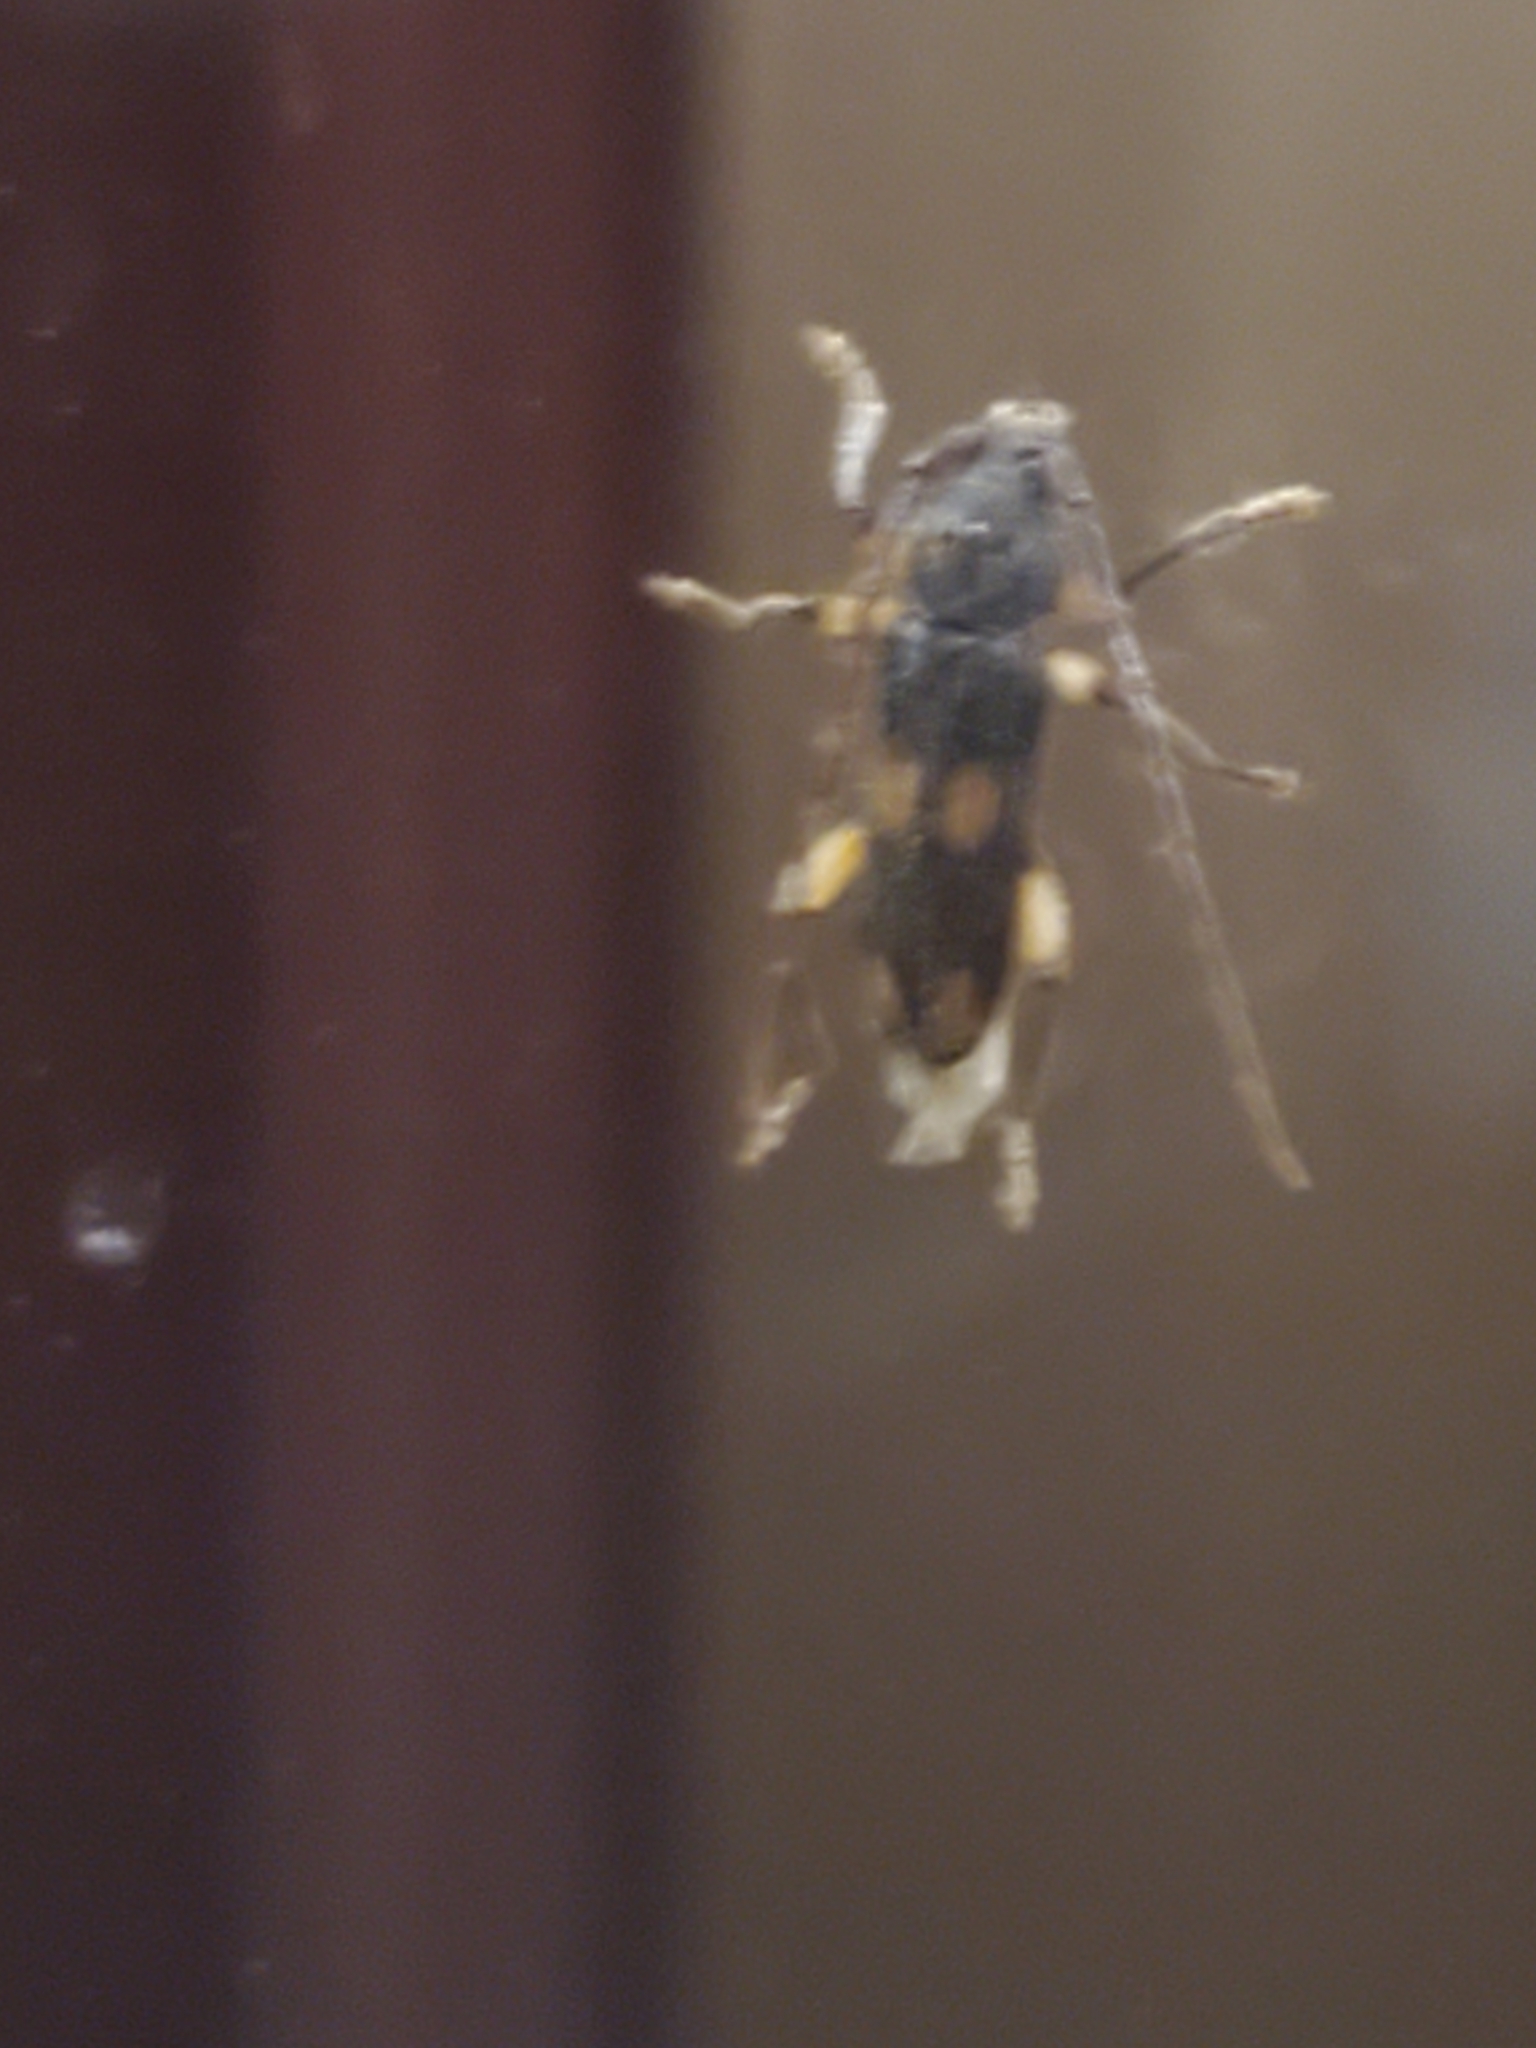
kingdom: Animalia
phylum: Arthropoda
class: Insecta
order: Coleoptera
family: Cerambycidae
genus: Tylonotus
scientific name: Tylonotus bimaculatus
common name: Ash and privet borer
